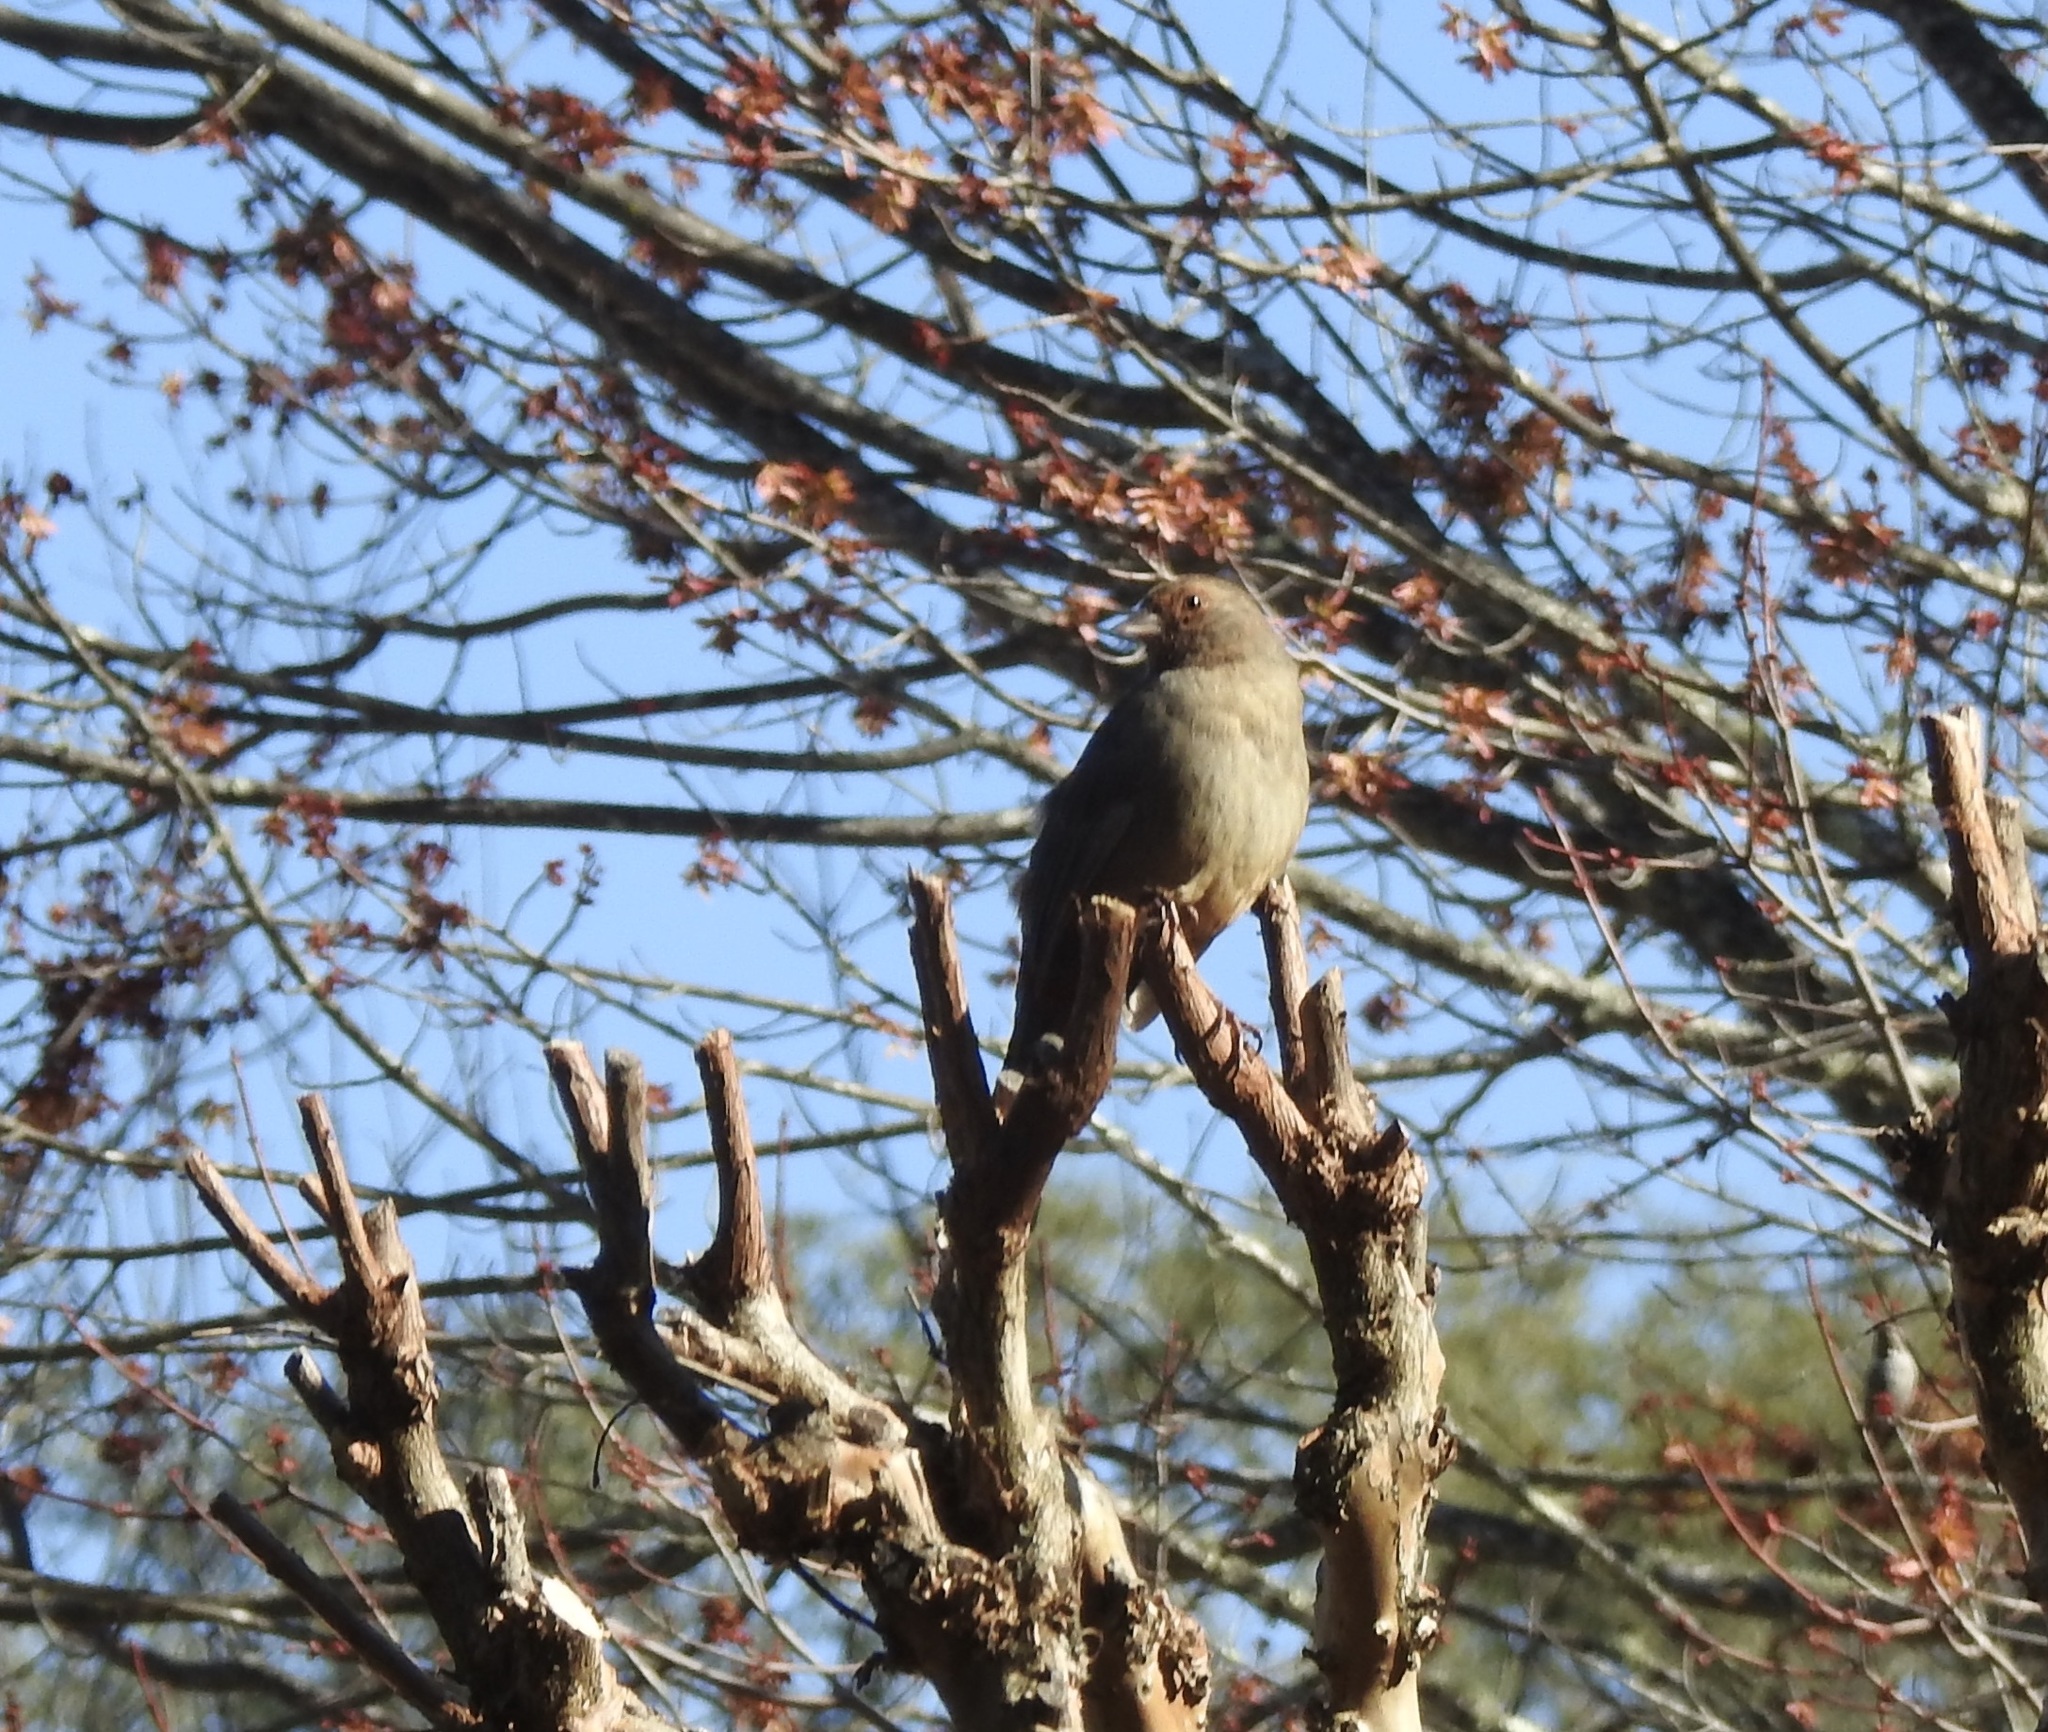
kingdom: Animalia
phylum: Chordata
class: Aves
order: Passeriformes
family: Passerellidae
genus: Melozone
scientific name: Melozone crissalis
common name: California towhee
